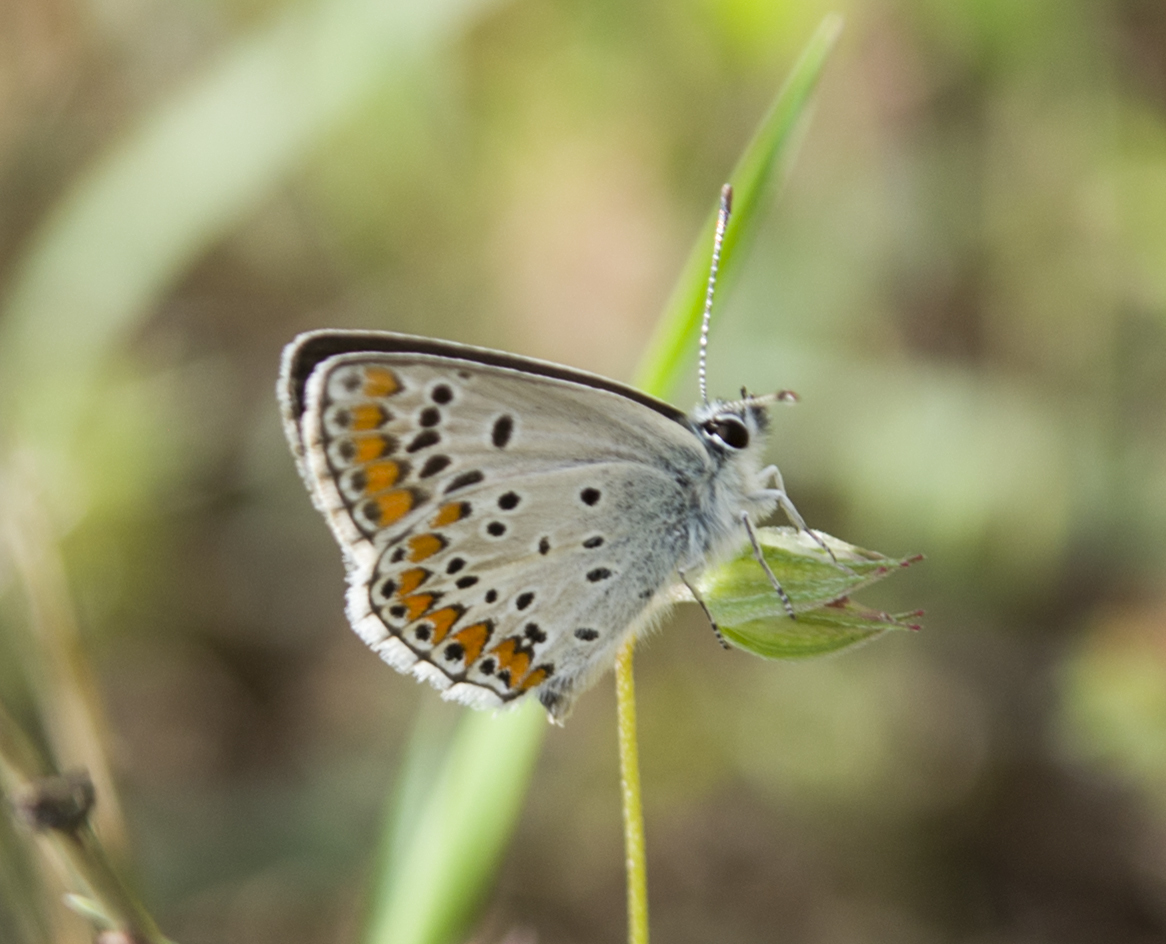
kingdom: Animalia
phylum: Arthropoda
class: Insecta
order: Lepidoptera
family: Lycaenidae
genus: Aricia
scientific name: Aricia agestis
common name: Brown argus
